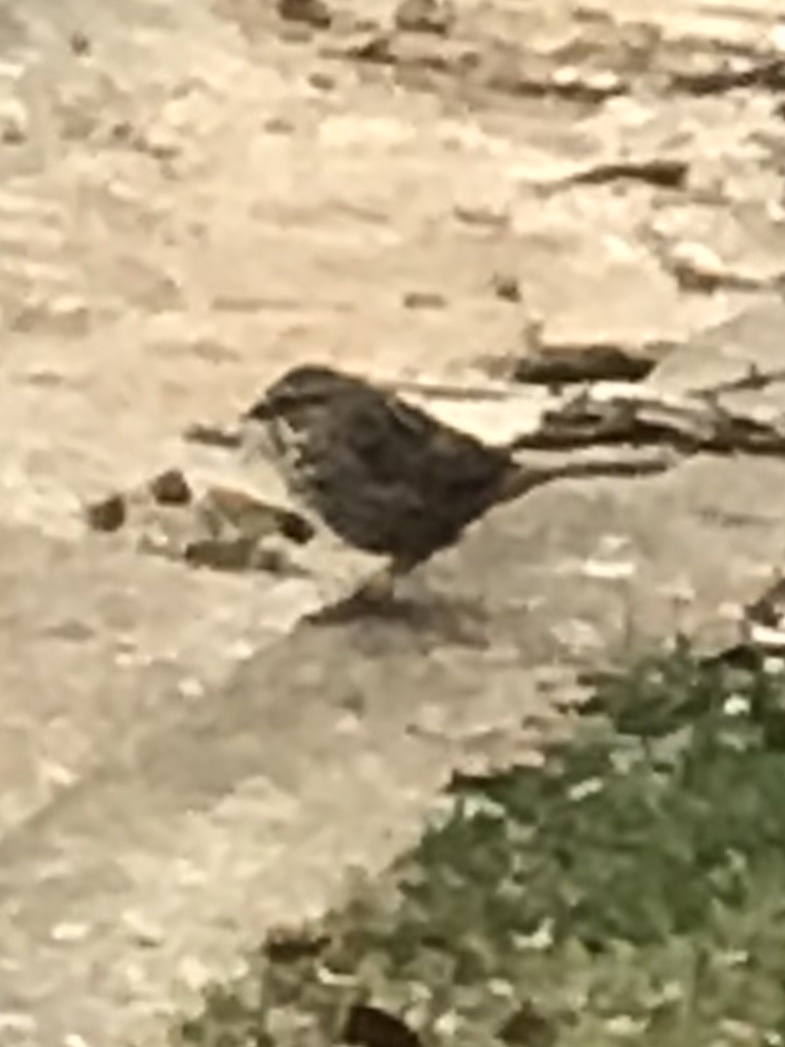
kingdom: Animalia
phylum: Chordata
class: Aves
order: Passeriformes
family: Passerellidae
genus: Melospiza
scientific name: Melospiza melodia
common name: Song sparrow
